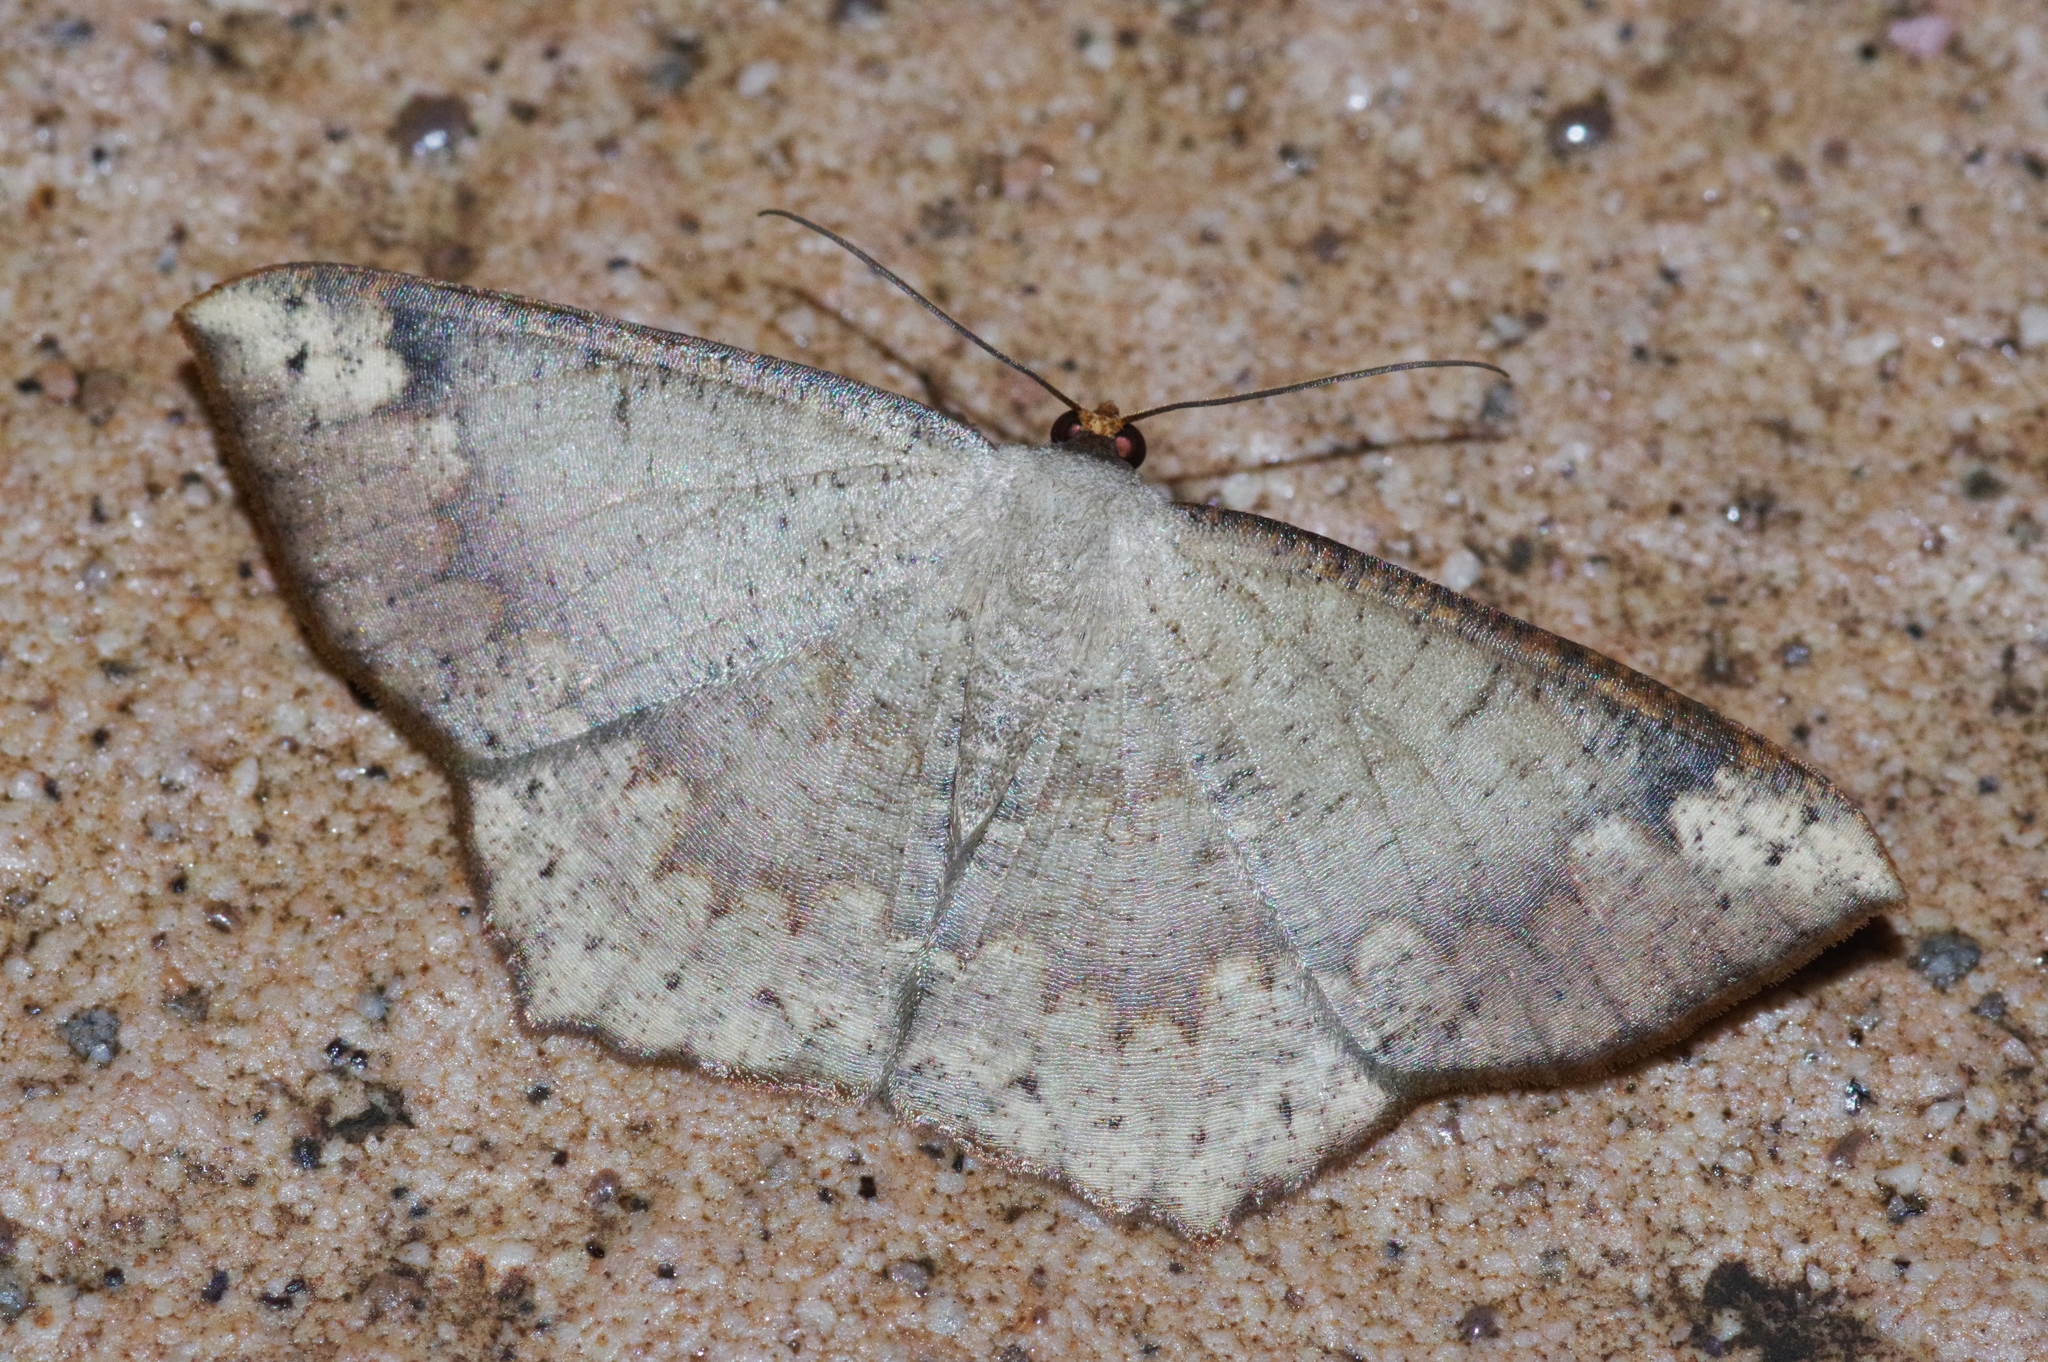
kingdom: Animalia
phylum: Arthropoda
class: Insecta
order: Lepidoptera
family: Geometridae
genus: Peratostega
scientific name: Peratostega deletaria
